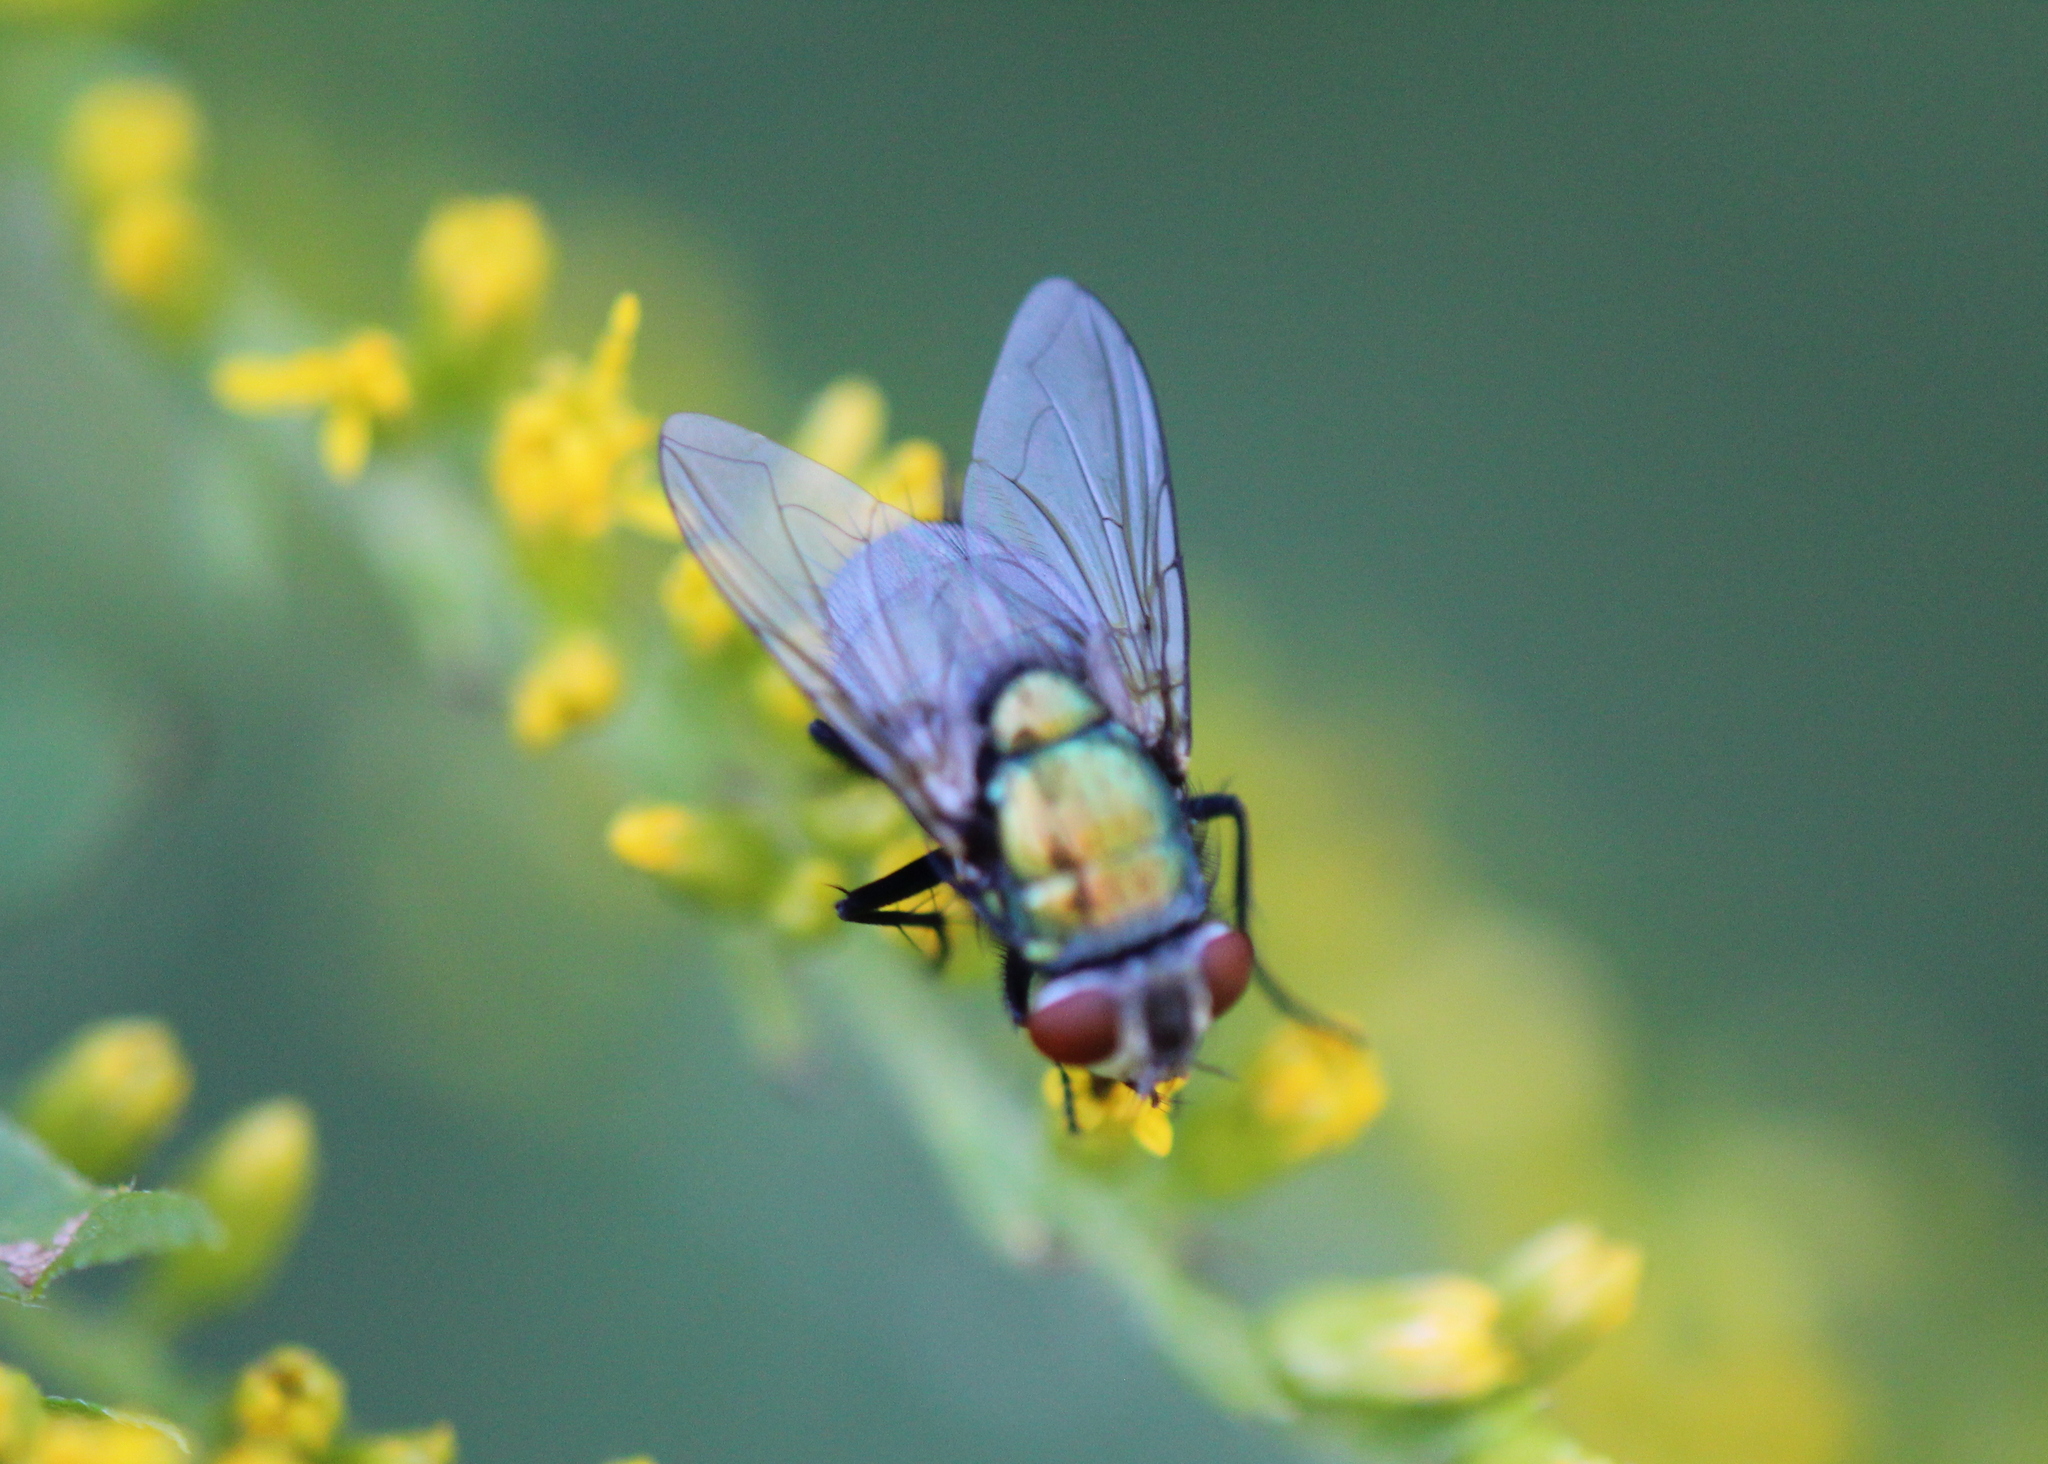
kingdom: Animalia
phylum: Arthropoda
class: Insecta
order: Diptera
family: Calliphoridae
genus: Lucilia
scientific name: Lucilia sericata
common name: Blow fly
